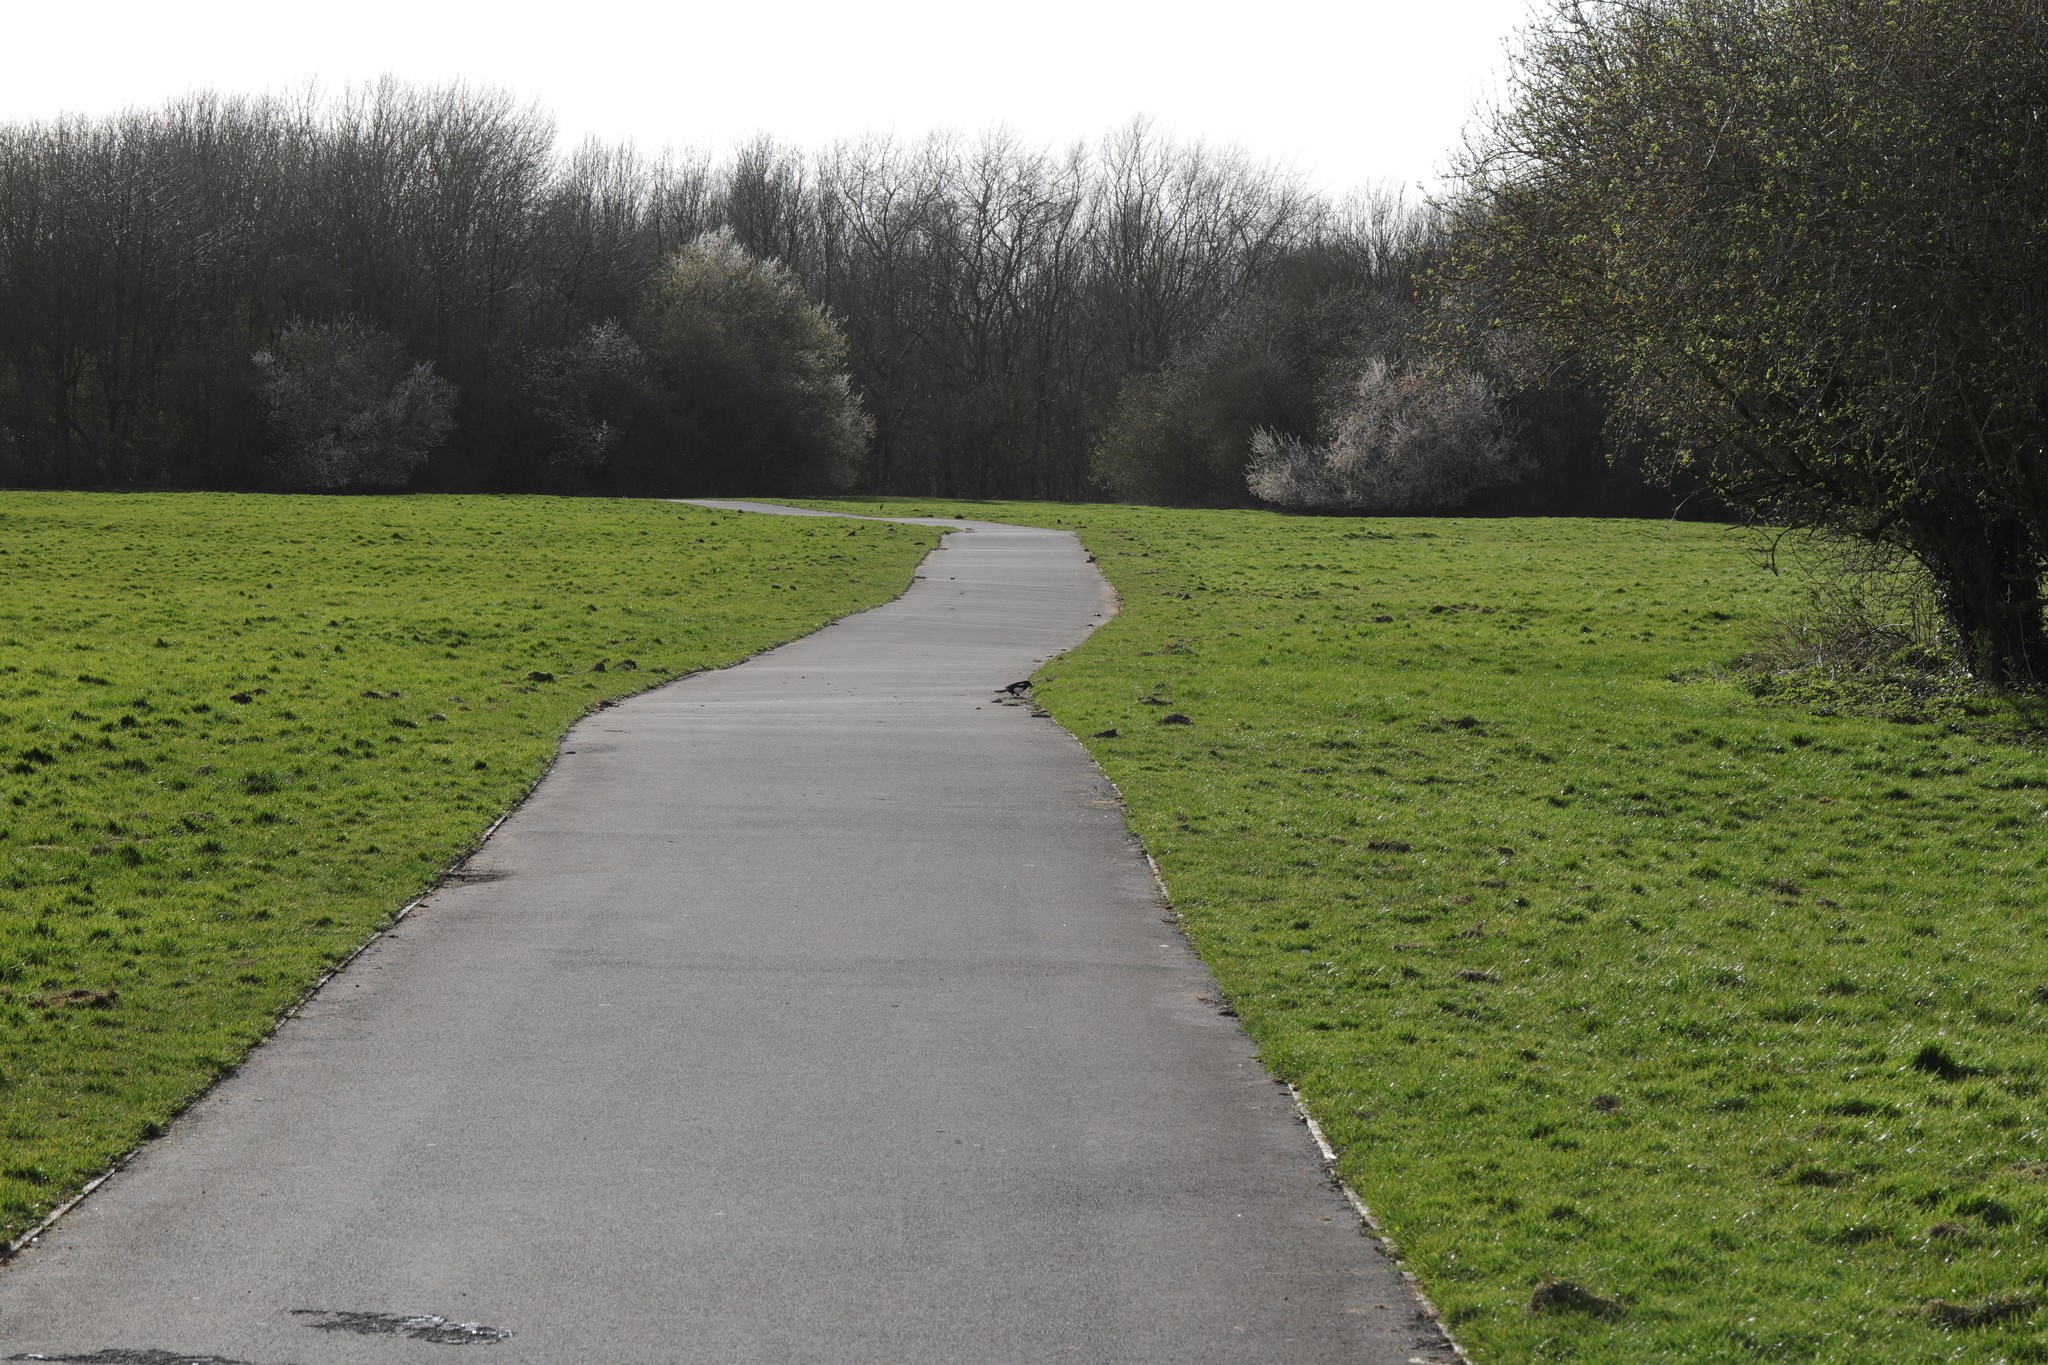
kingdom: Animalia
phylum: Chordata
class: Aves
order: Passeriformes
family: Corvidae
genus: Pica
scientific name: Pica pica
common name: Eurasian magpie
